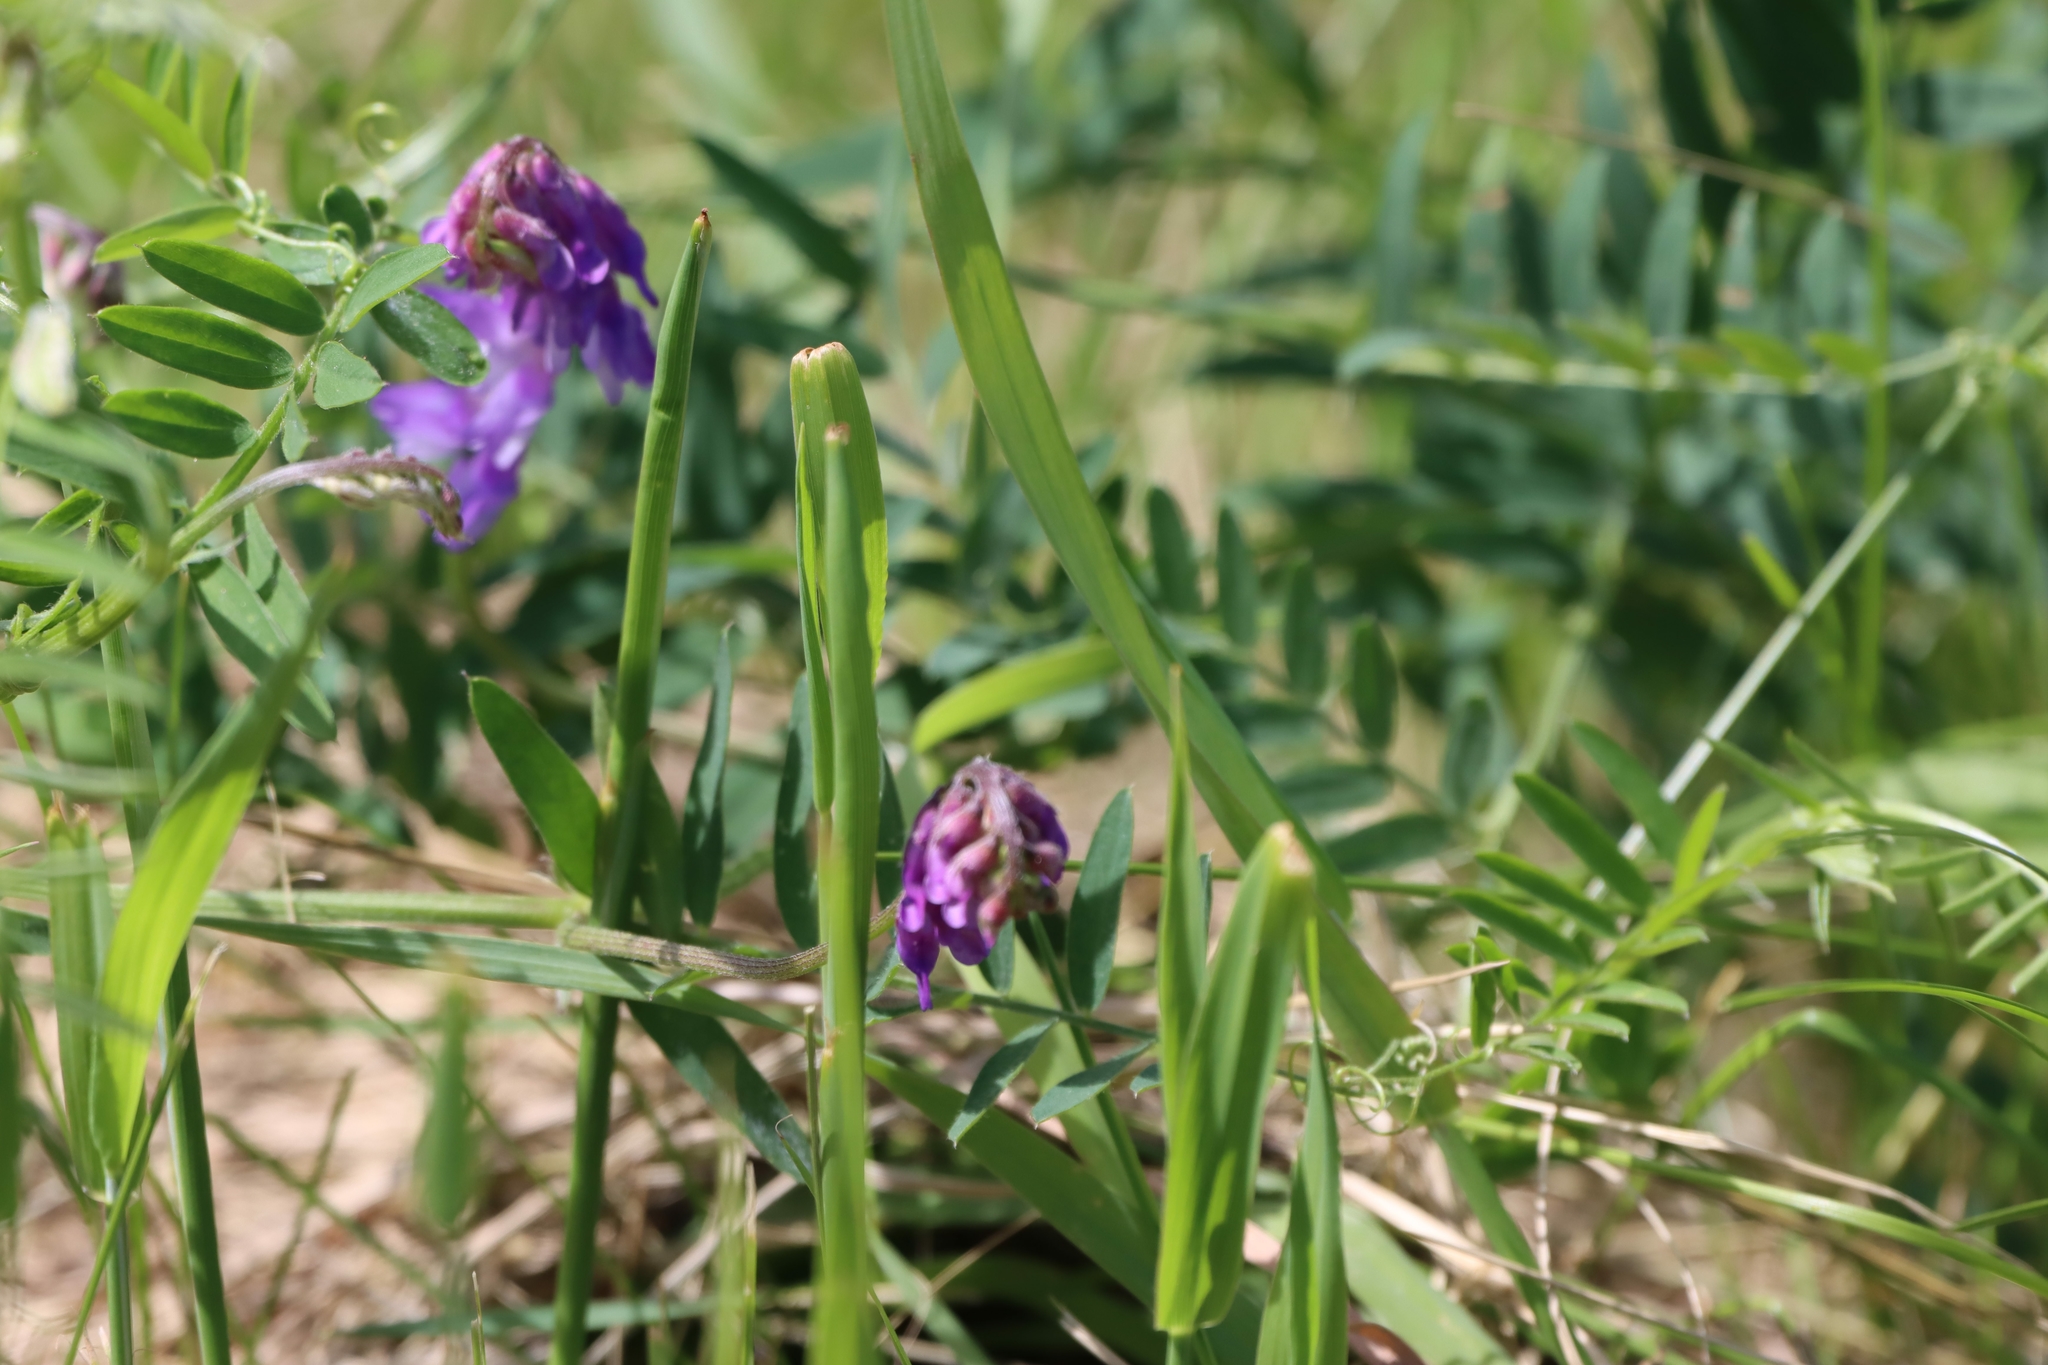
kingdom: Plantae
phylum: Tracheophyta
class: Magnoliopsida
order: Fabales
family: Fabaceae
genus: Vicia
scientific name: Vicia americana
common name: American vetch
